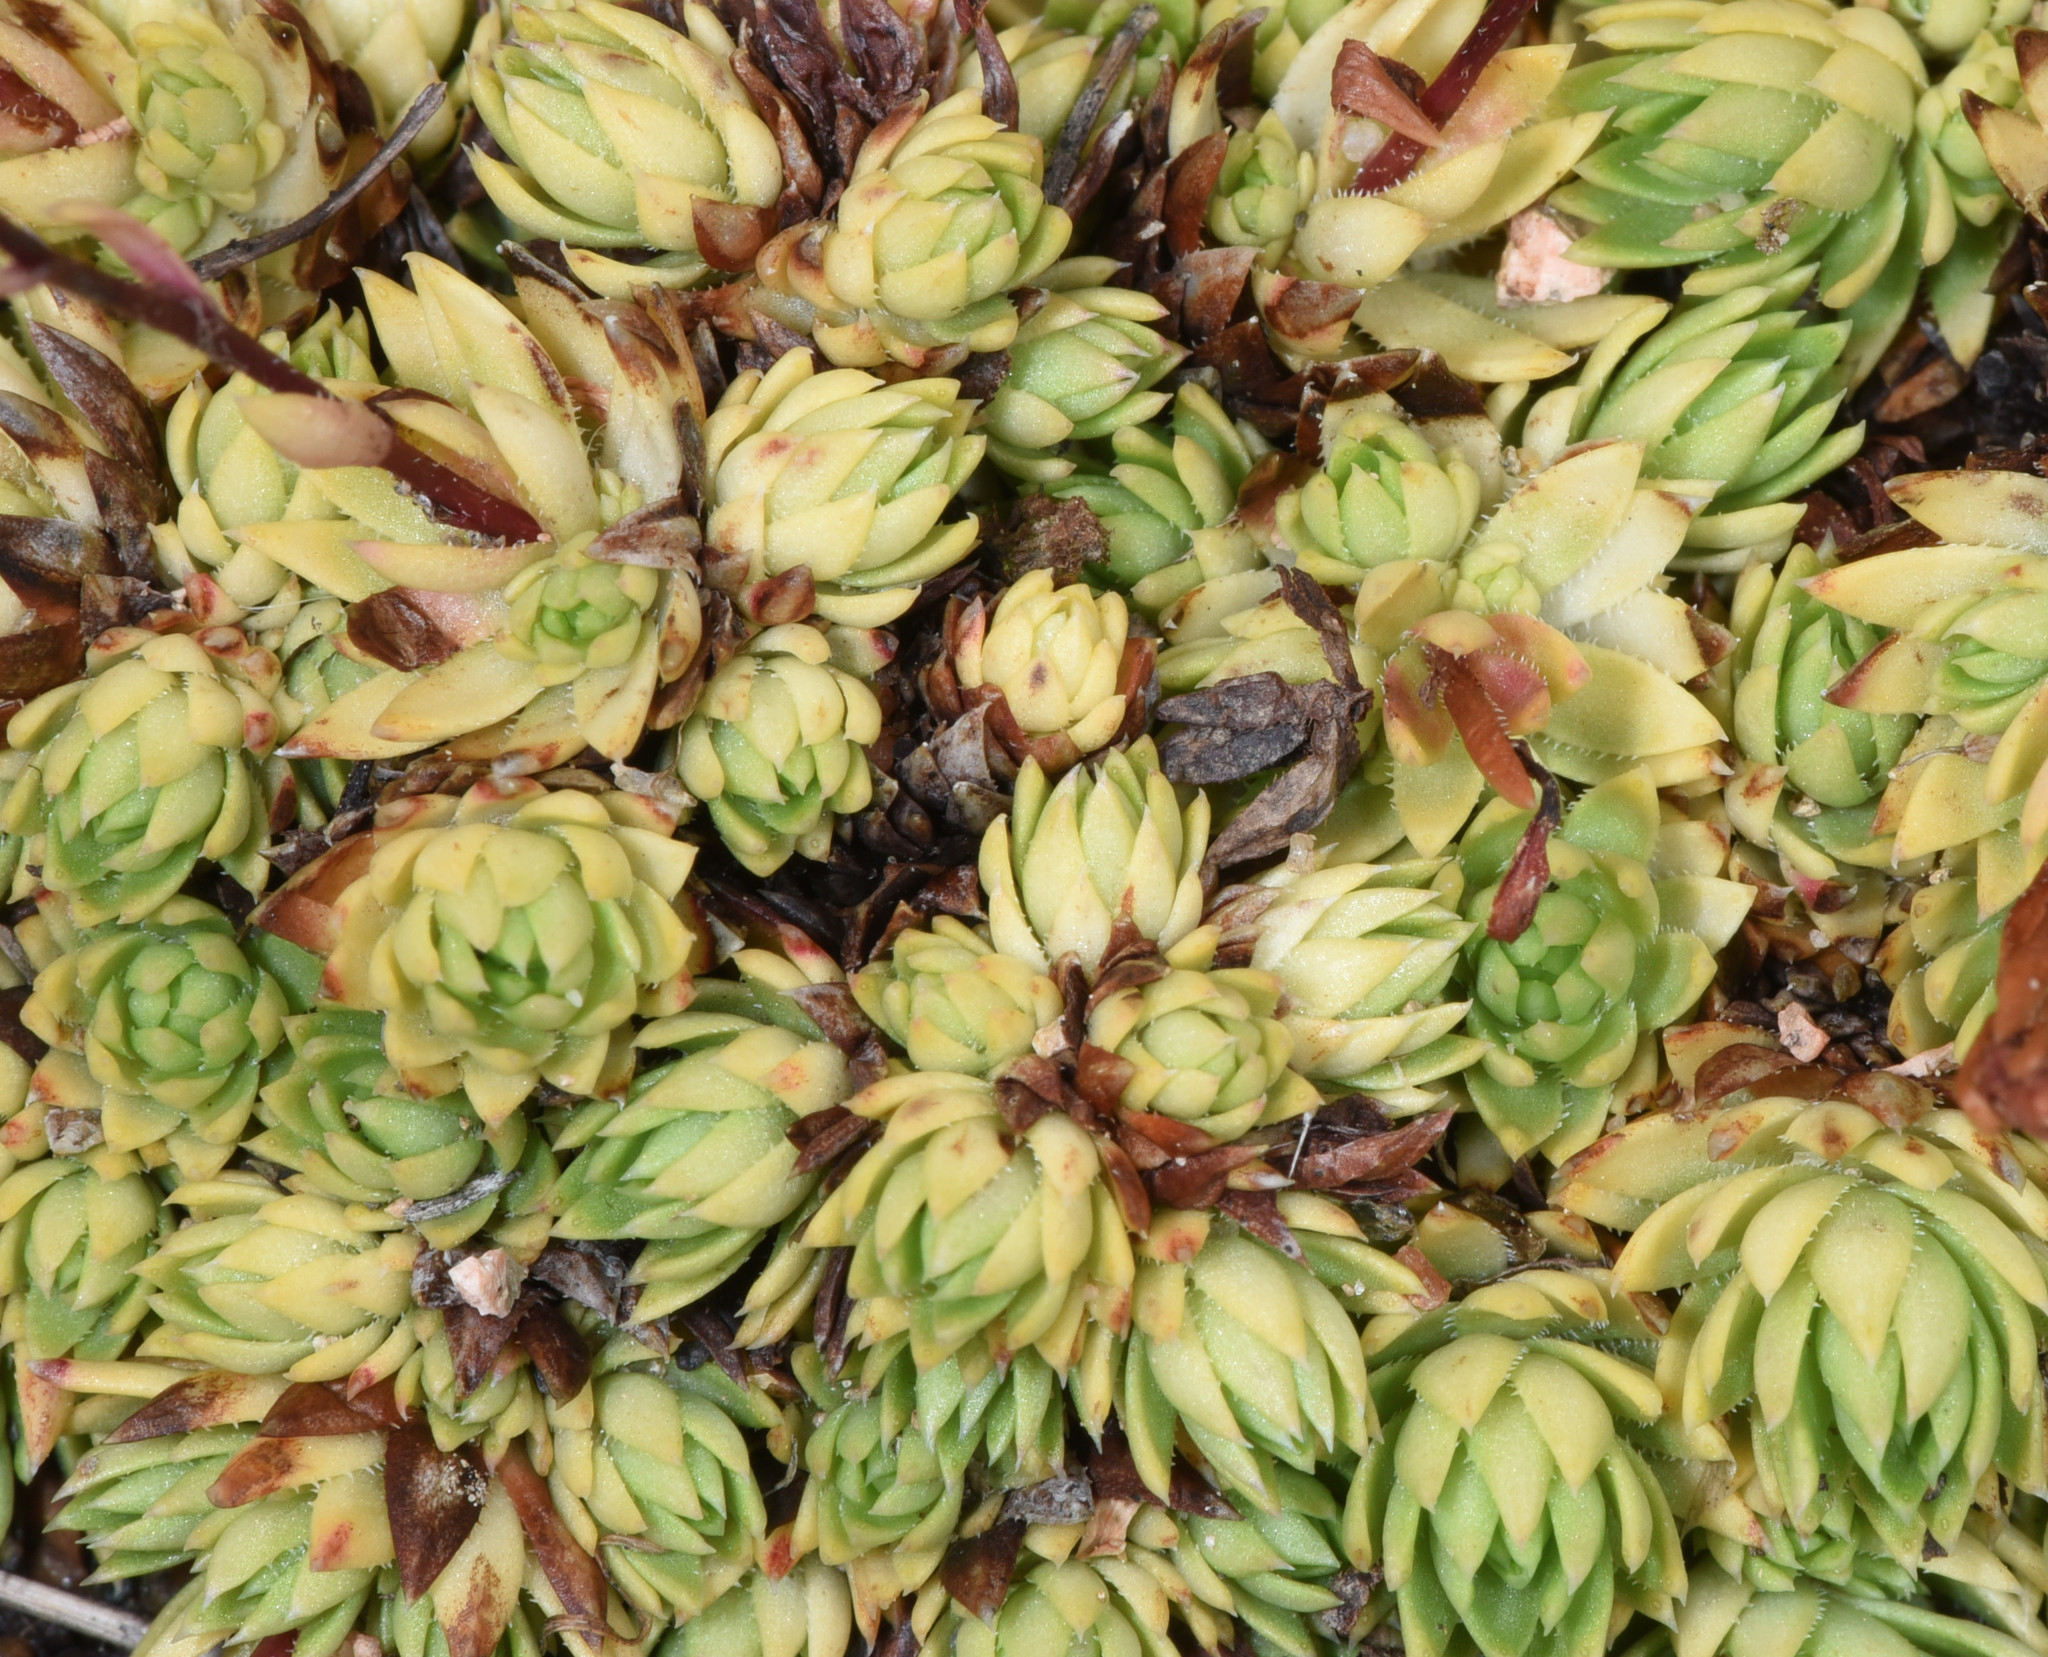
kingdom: Plantae
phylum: Tracheophyta
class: Magnoliopsida
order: Saxifragales
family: Saxifragaceae
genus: Saxifraga
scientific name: Saxifraga bronchialis
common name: Matted saxifrage
